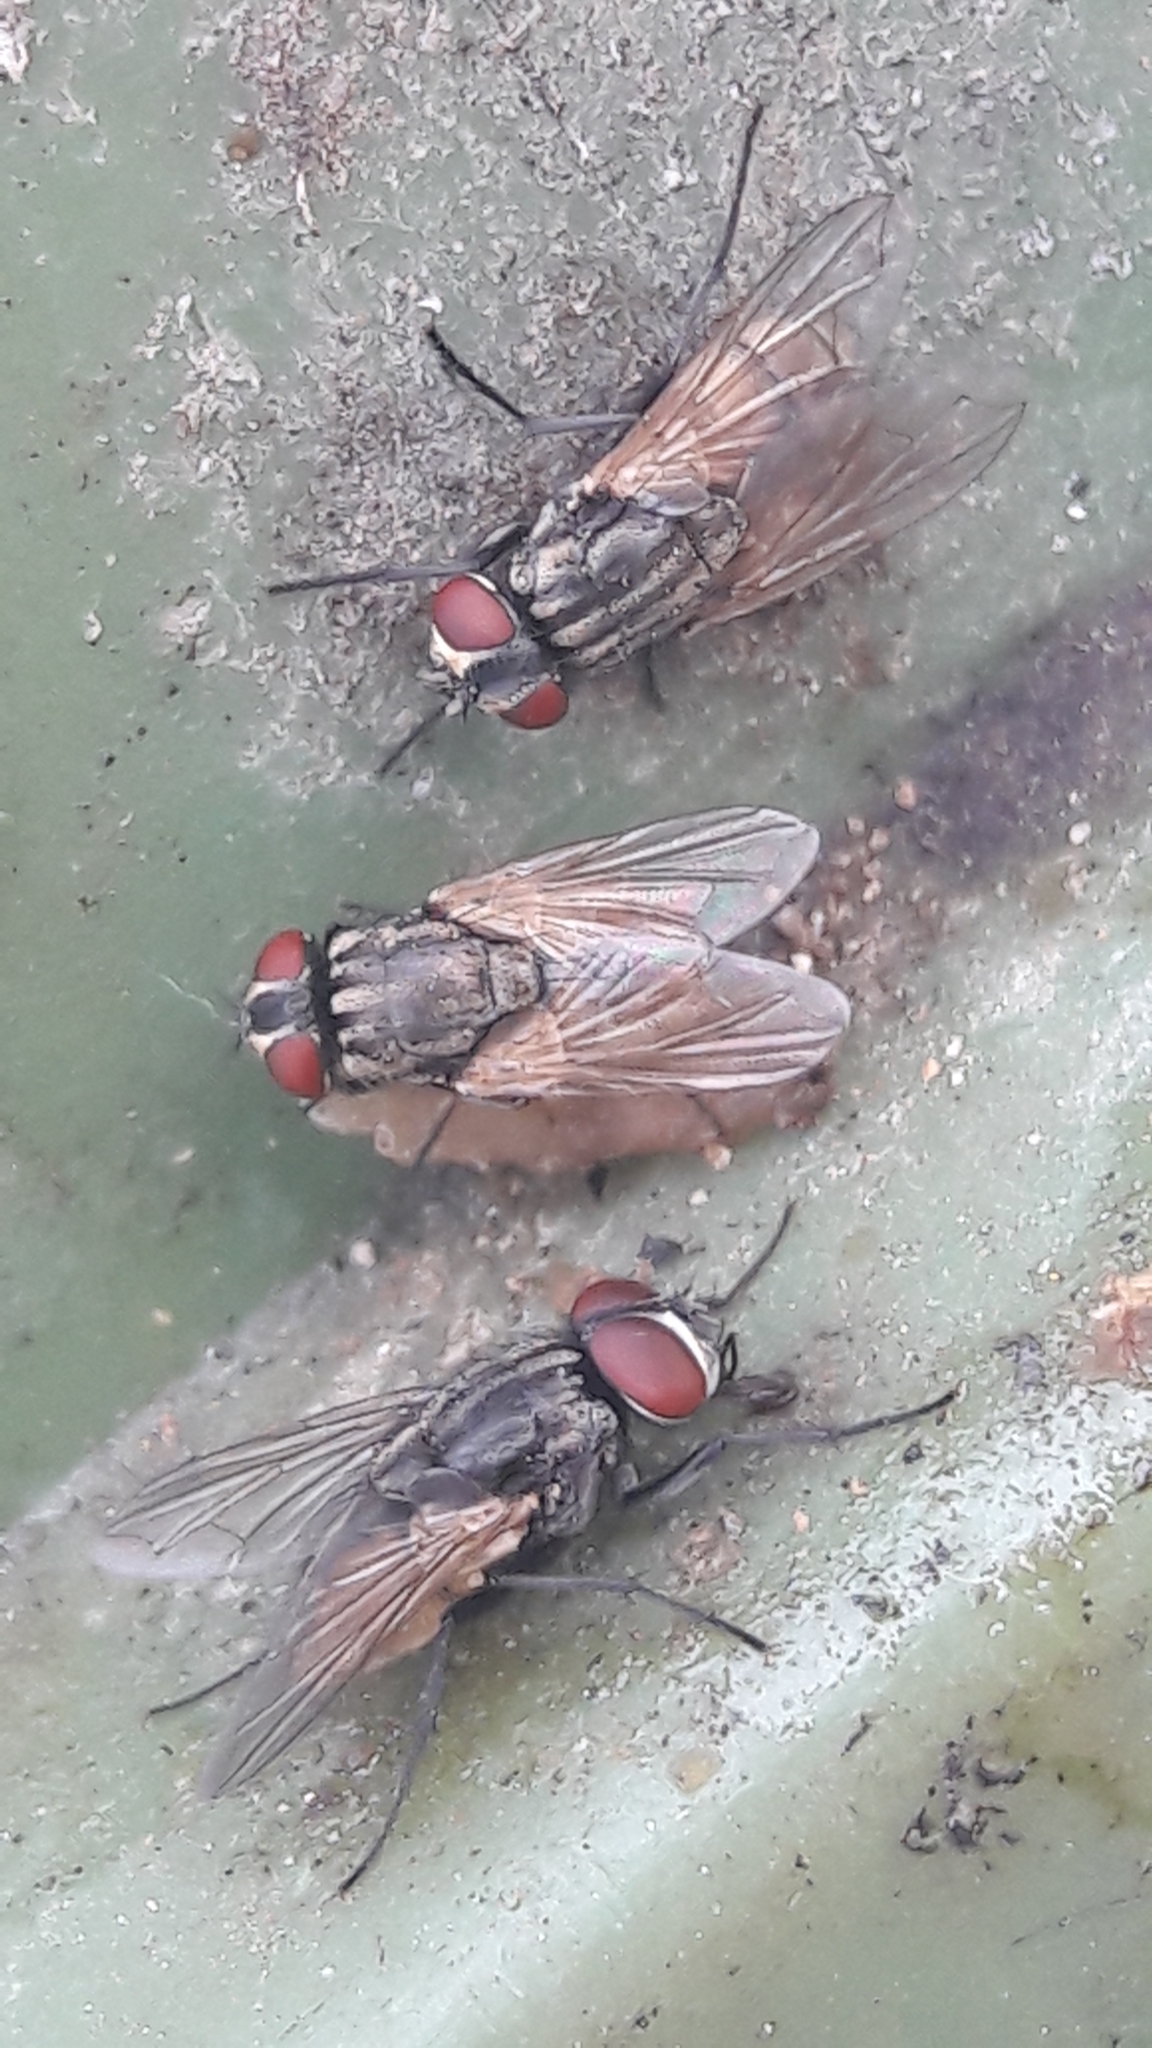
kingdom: Animalia
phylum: Arthropoda
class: Insecta
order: Diptera
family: Muscidae
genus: Musca
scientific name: Musca domestica
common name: House fly
